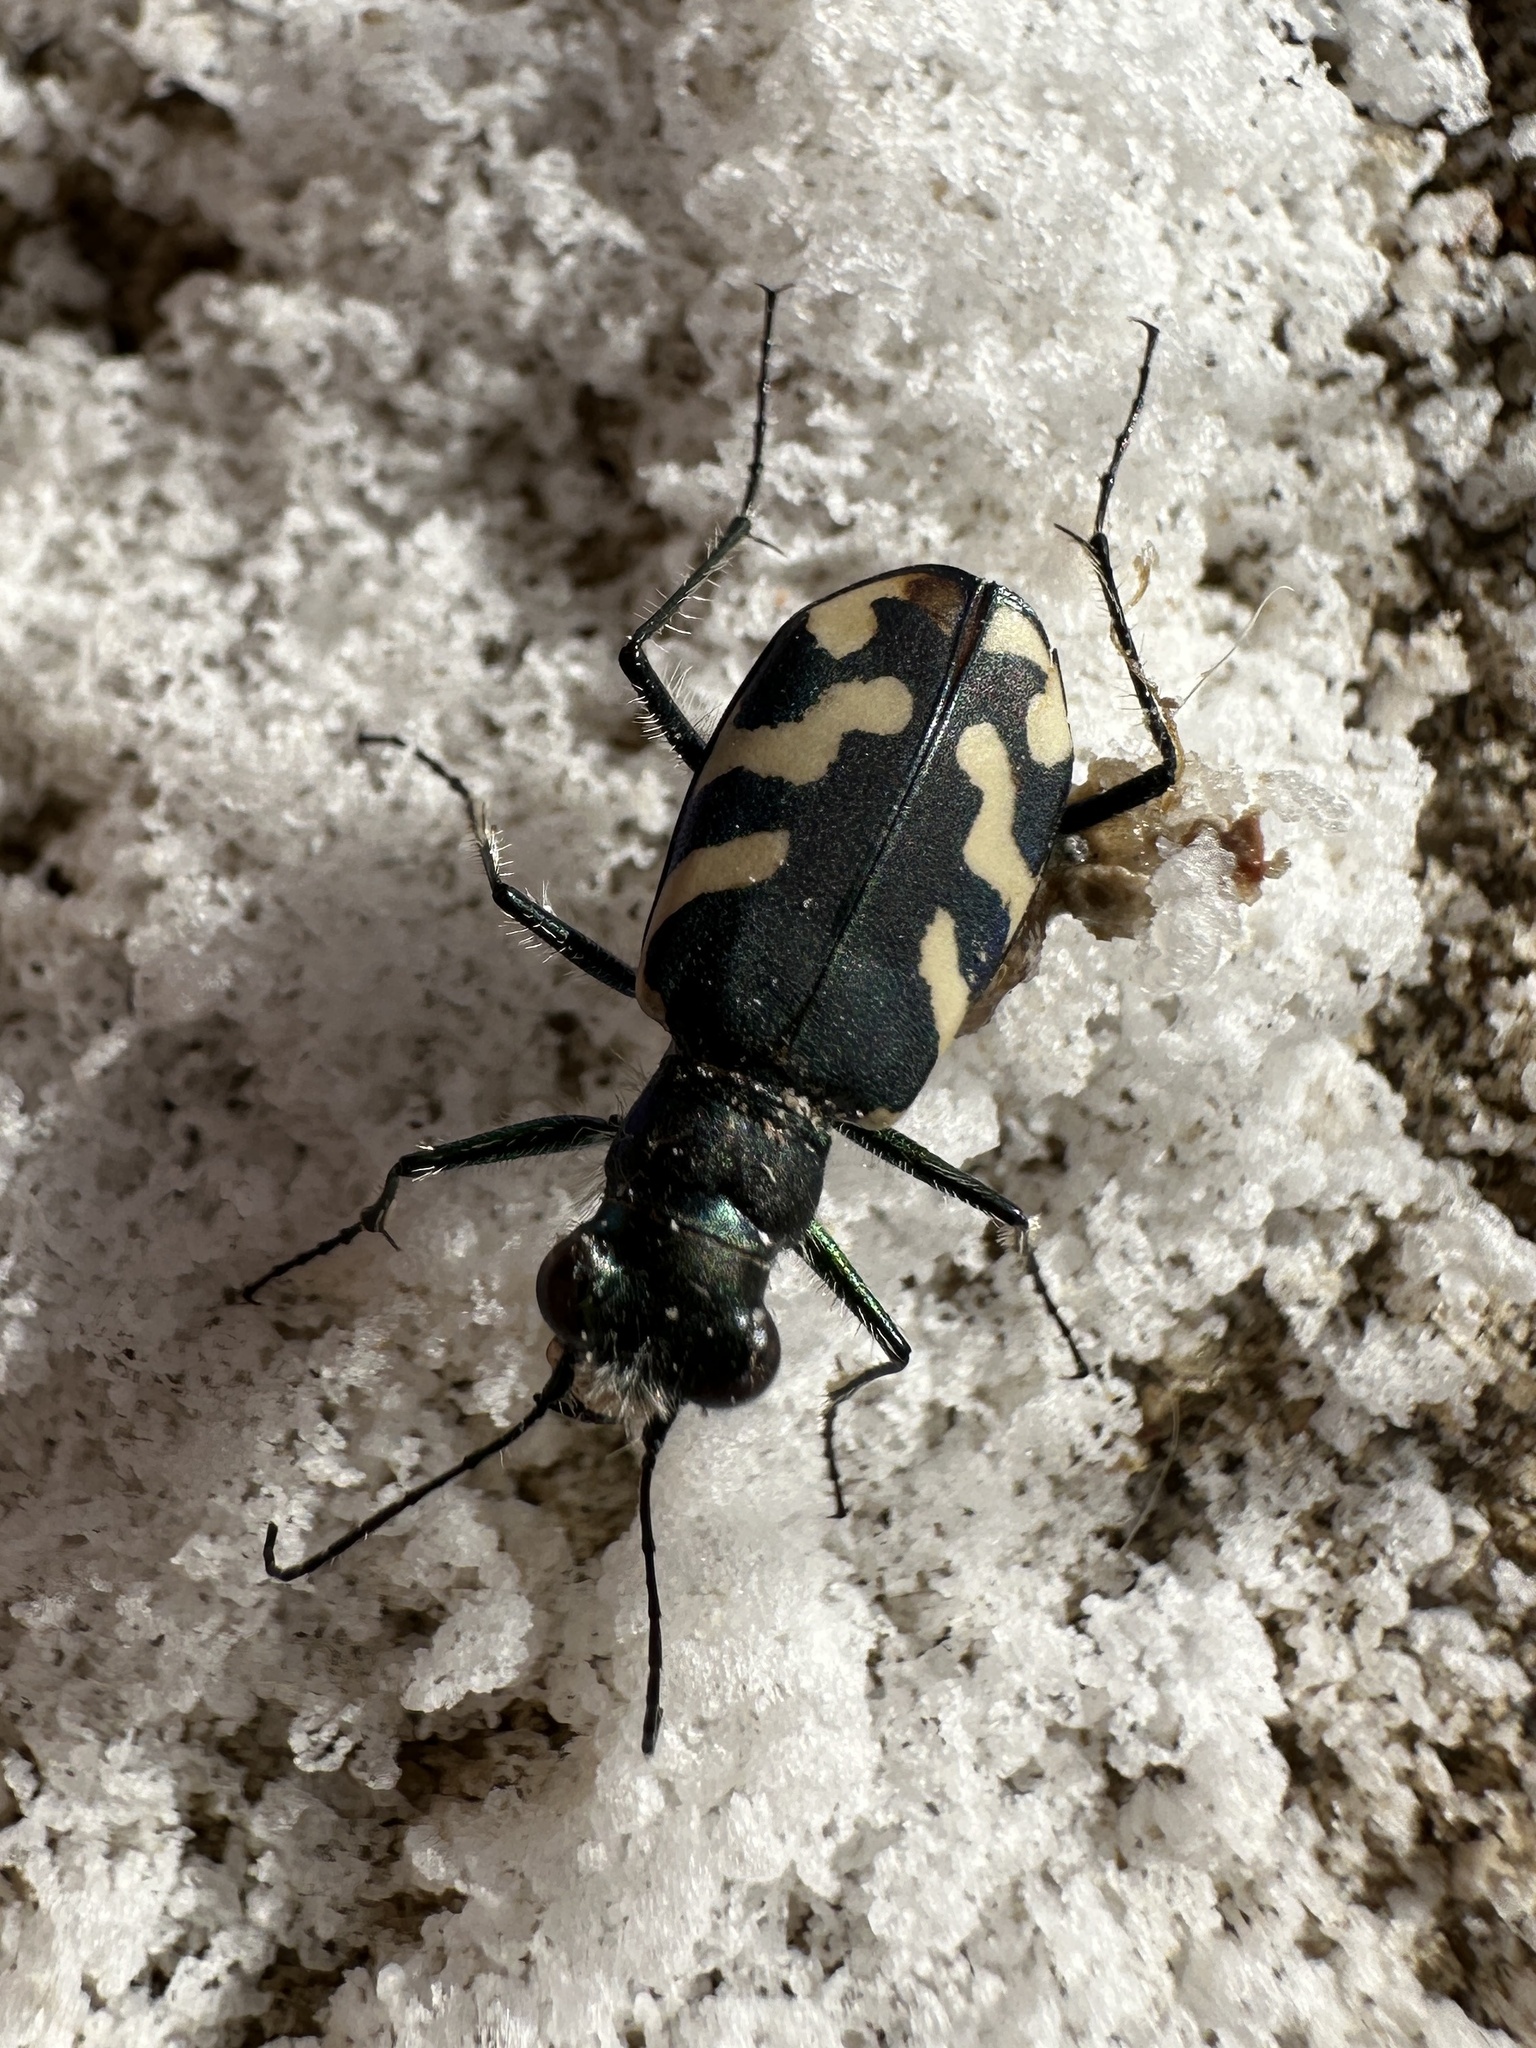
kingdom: Animalia
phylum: Arthropoda
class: Insecta
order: Coleoptera
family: Carabidae
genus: Cicindela
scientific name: Cicindela tranquebarica
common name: Oblique-lined tiger beetle
